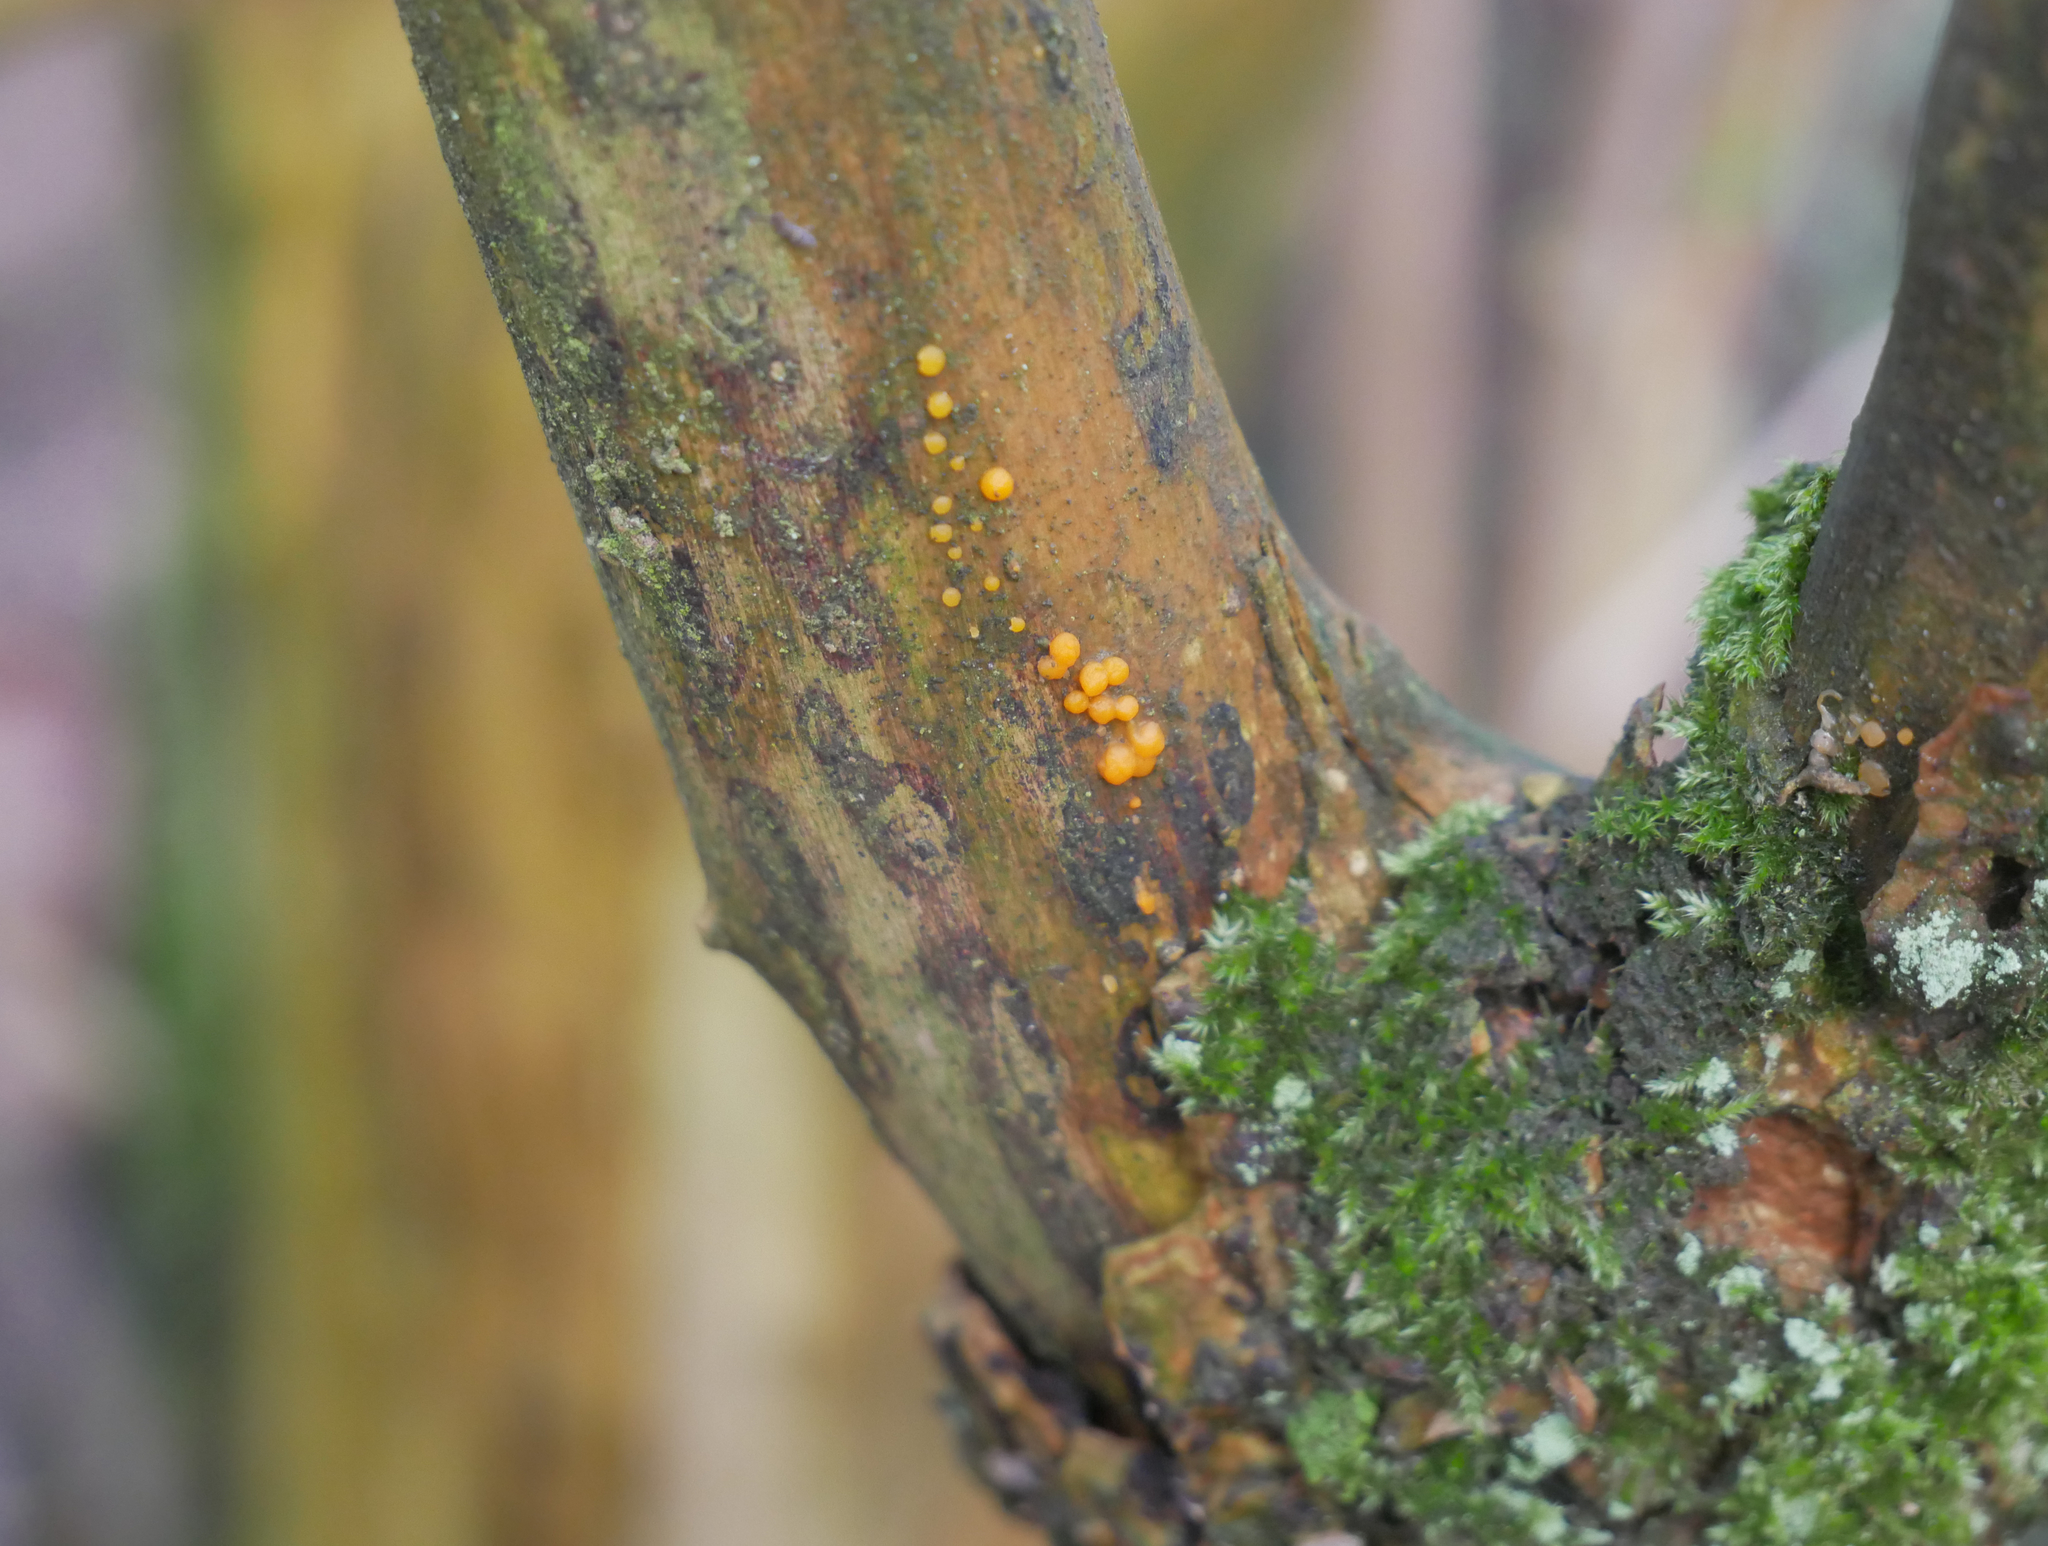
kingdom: Fungi
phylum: Basidiomycota
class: Dacrymycetes
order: Dacrymycetales
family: Dacrymycetaceae
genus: Dacrymyces
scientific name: Dacrymyces stillatus
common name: Common jelly spot
